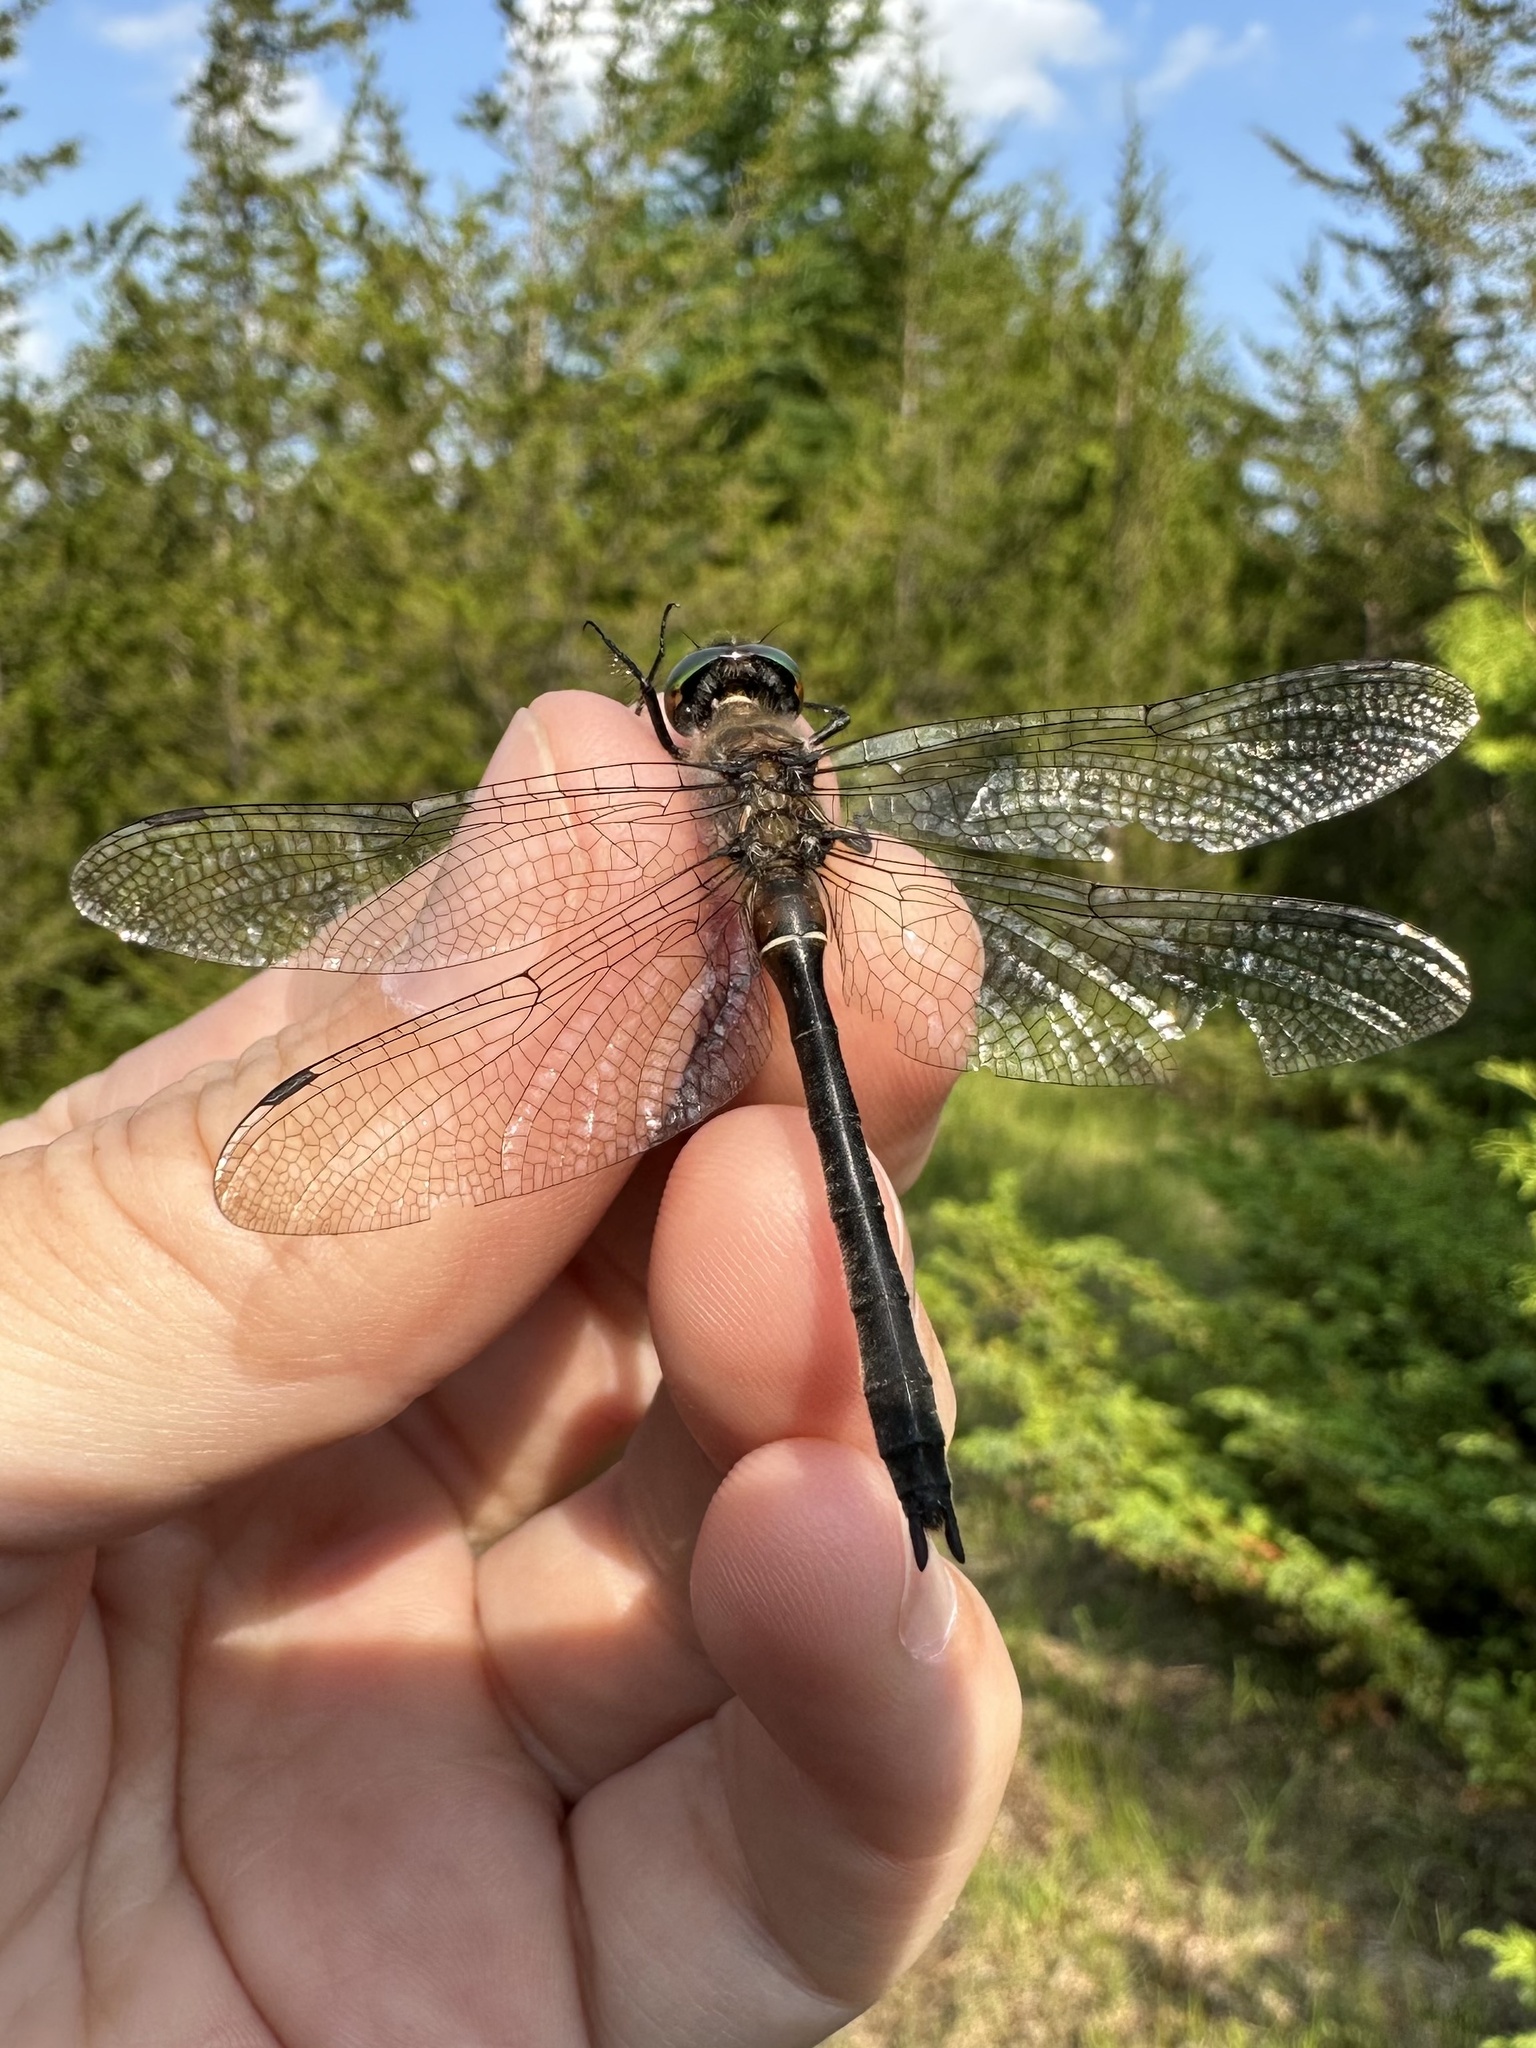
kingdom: Animalia
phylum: Arthropoda
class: Insecta
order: Odonata
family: Corduliidae
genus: Cordulia
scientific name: Cordulia shurtleffii
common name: American emerald
